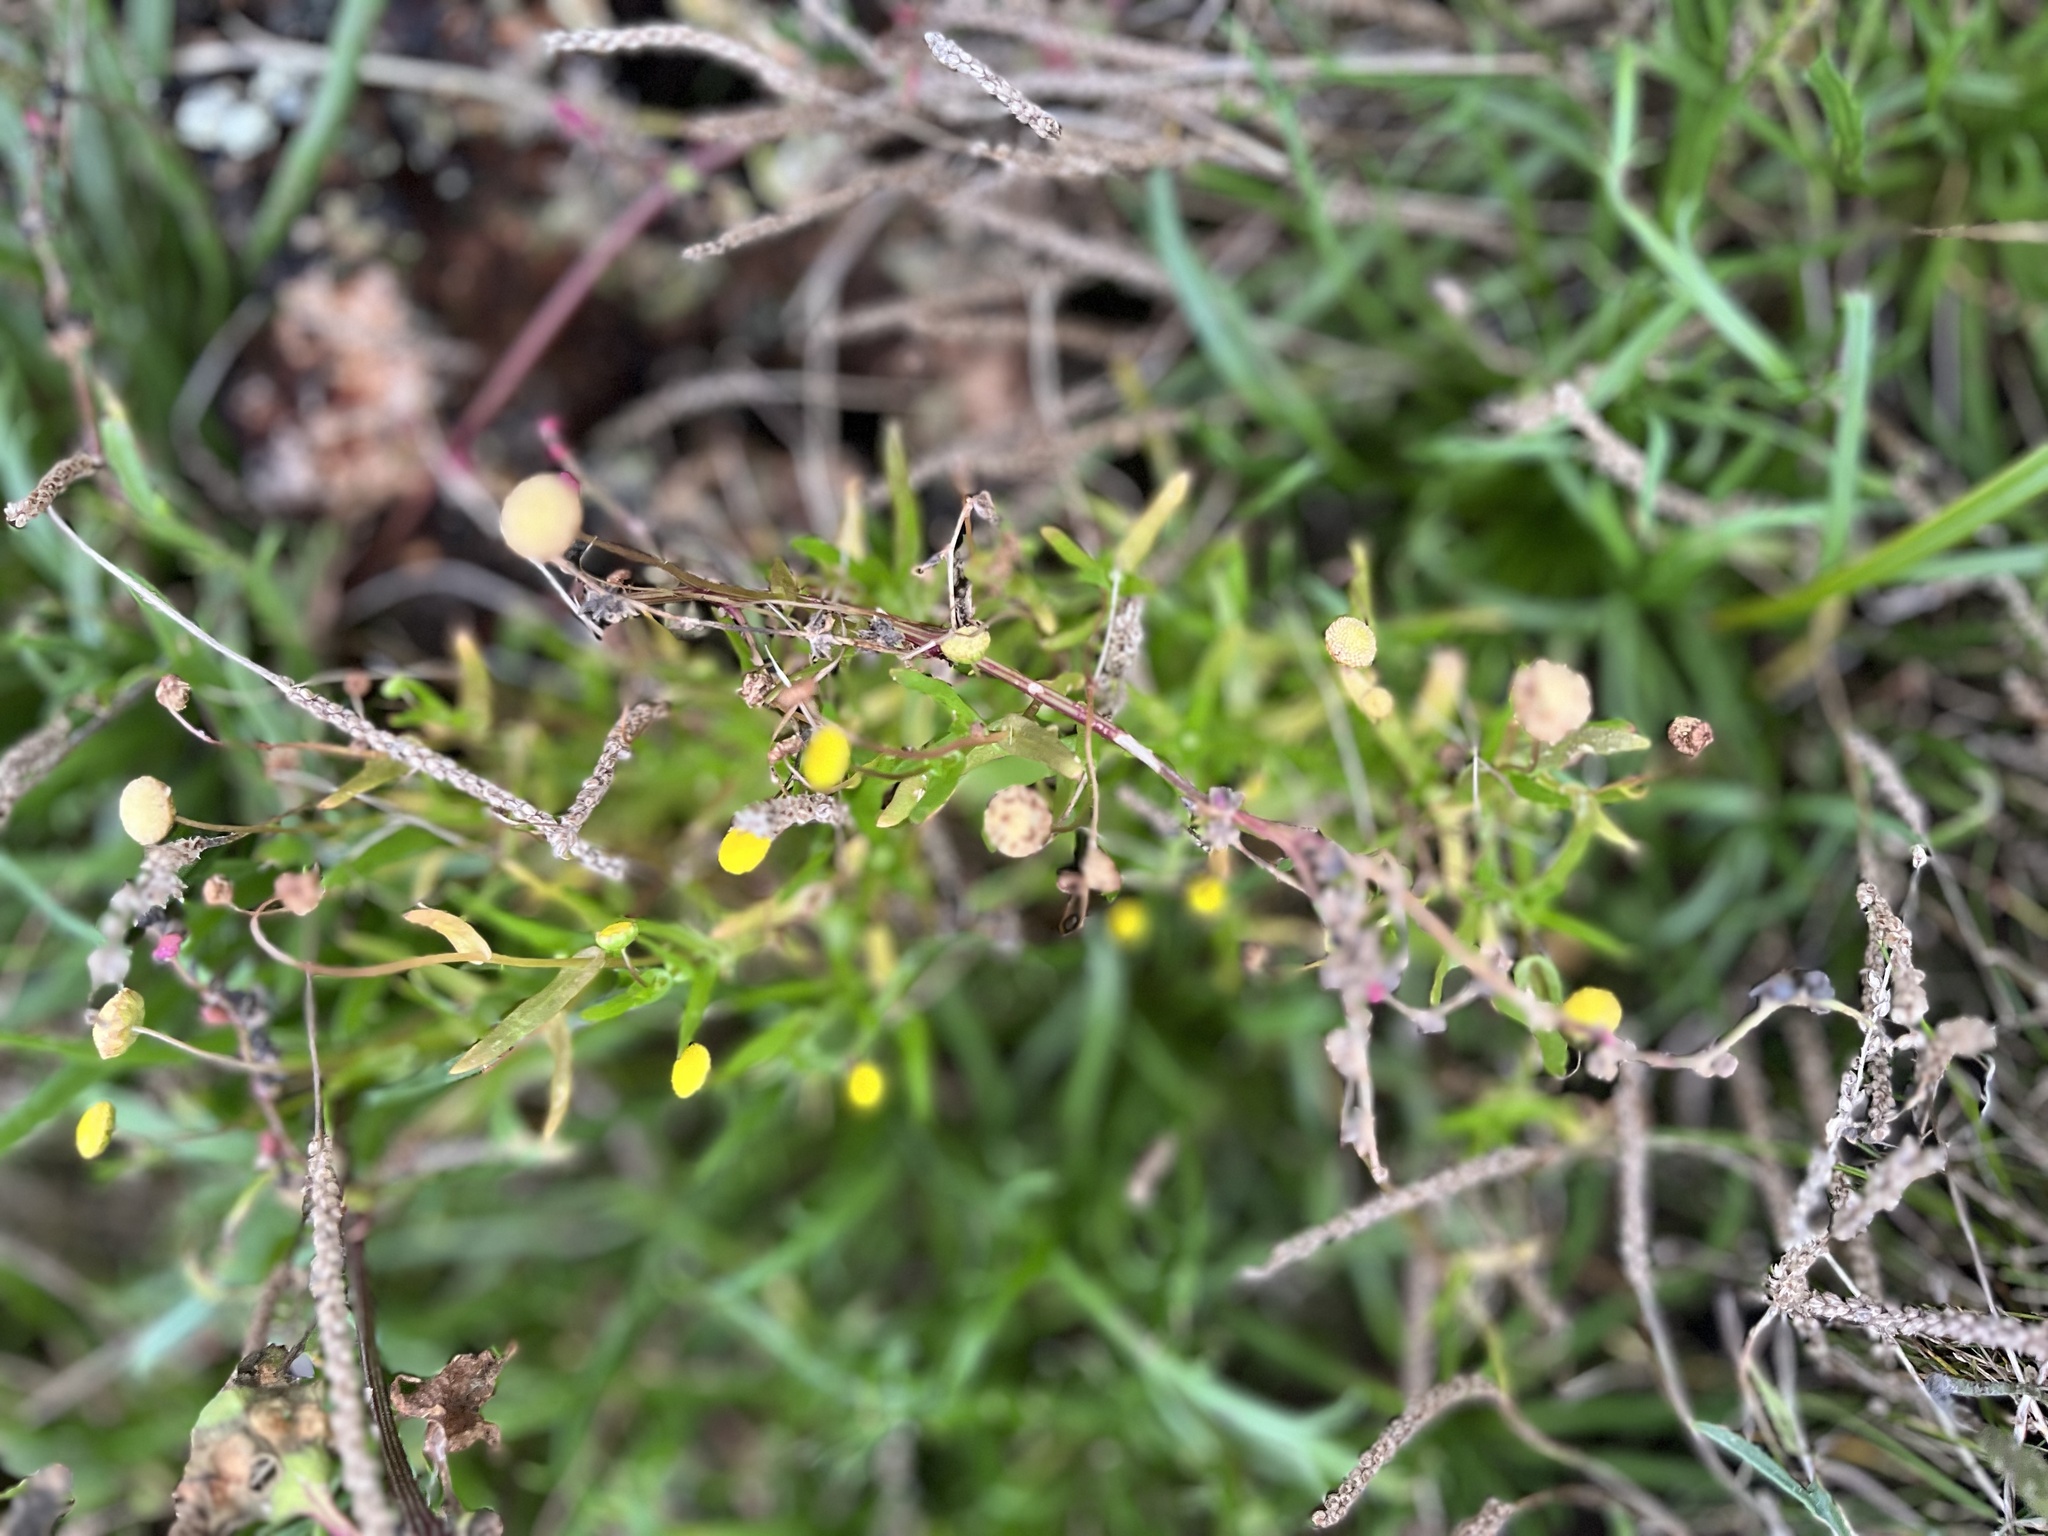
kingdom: Plantae
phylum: Tracheophyta
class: Magnoliopsida
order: Asterales
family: Asteraceae
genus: Cotula
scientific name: Cotula coronopifolia
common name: Buttonweed
